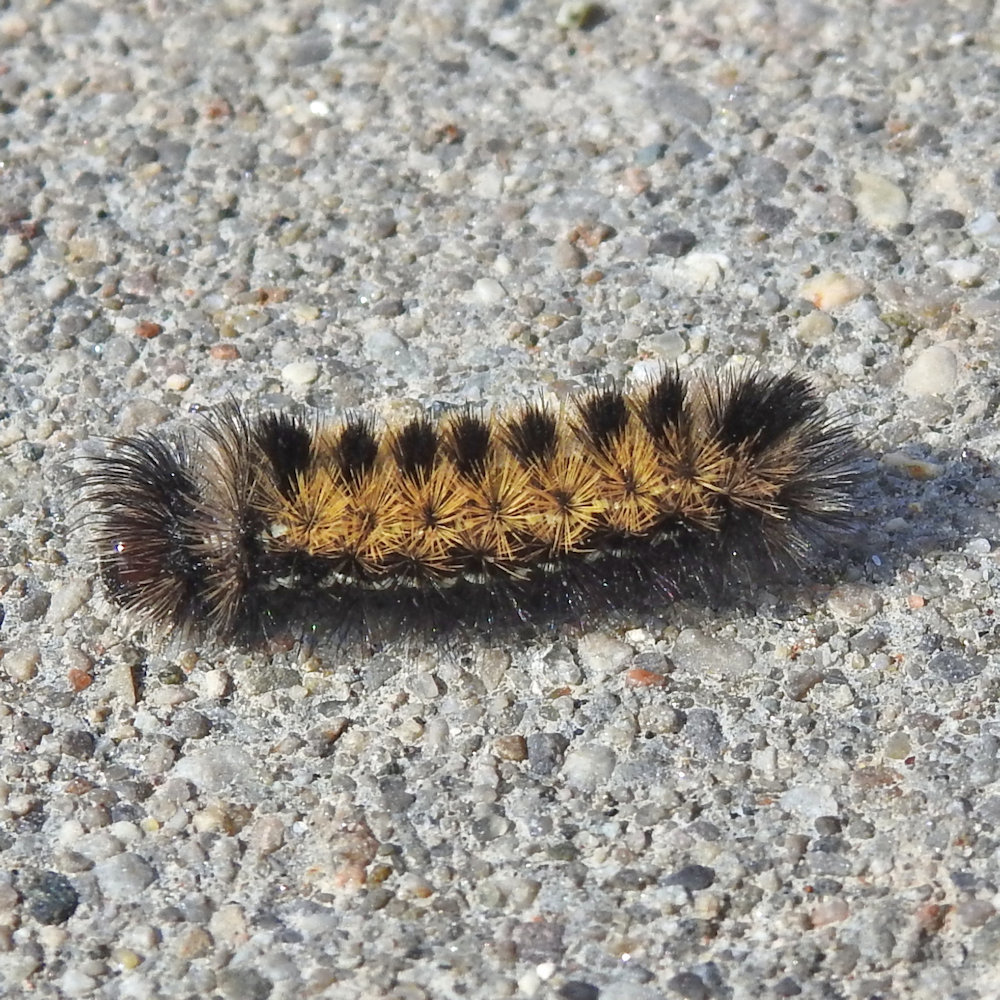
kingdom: Animalia
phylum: Arthropoda
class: Insecta
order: Lepidoptera
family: Erebidae
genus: Ctenucha
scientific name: Ctenucha virginica
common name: Virginia ctenucha moth
